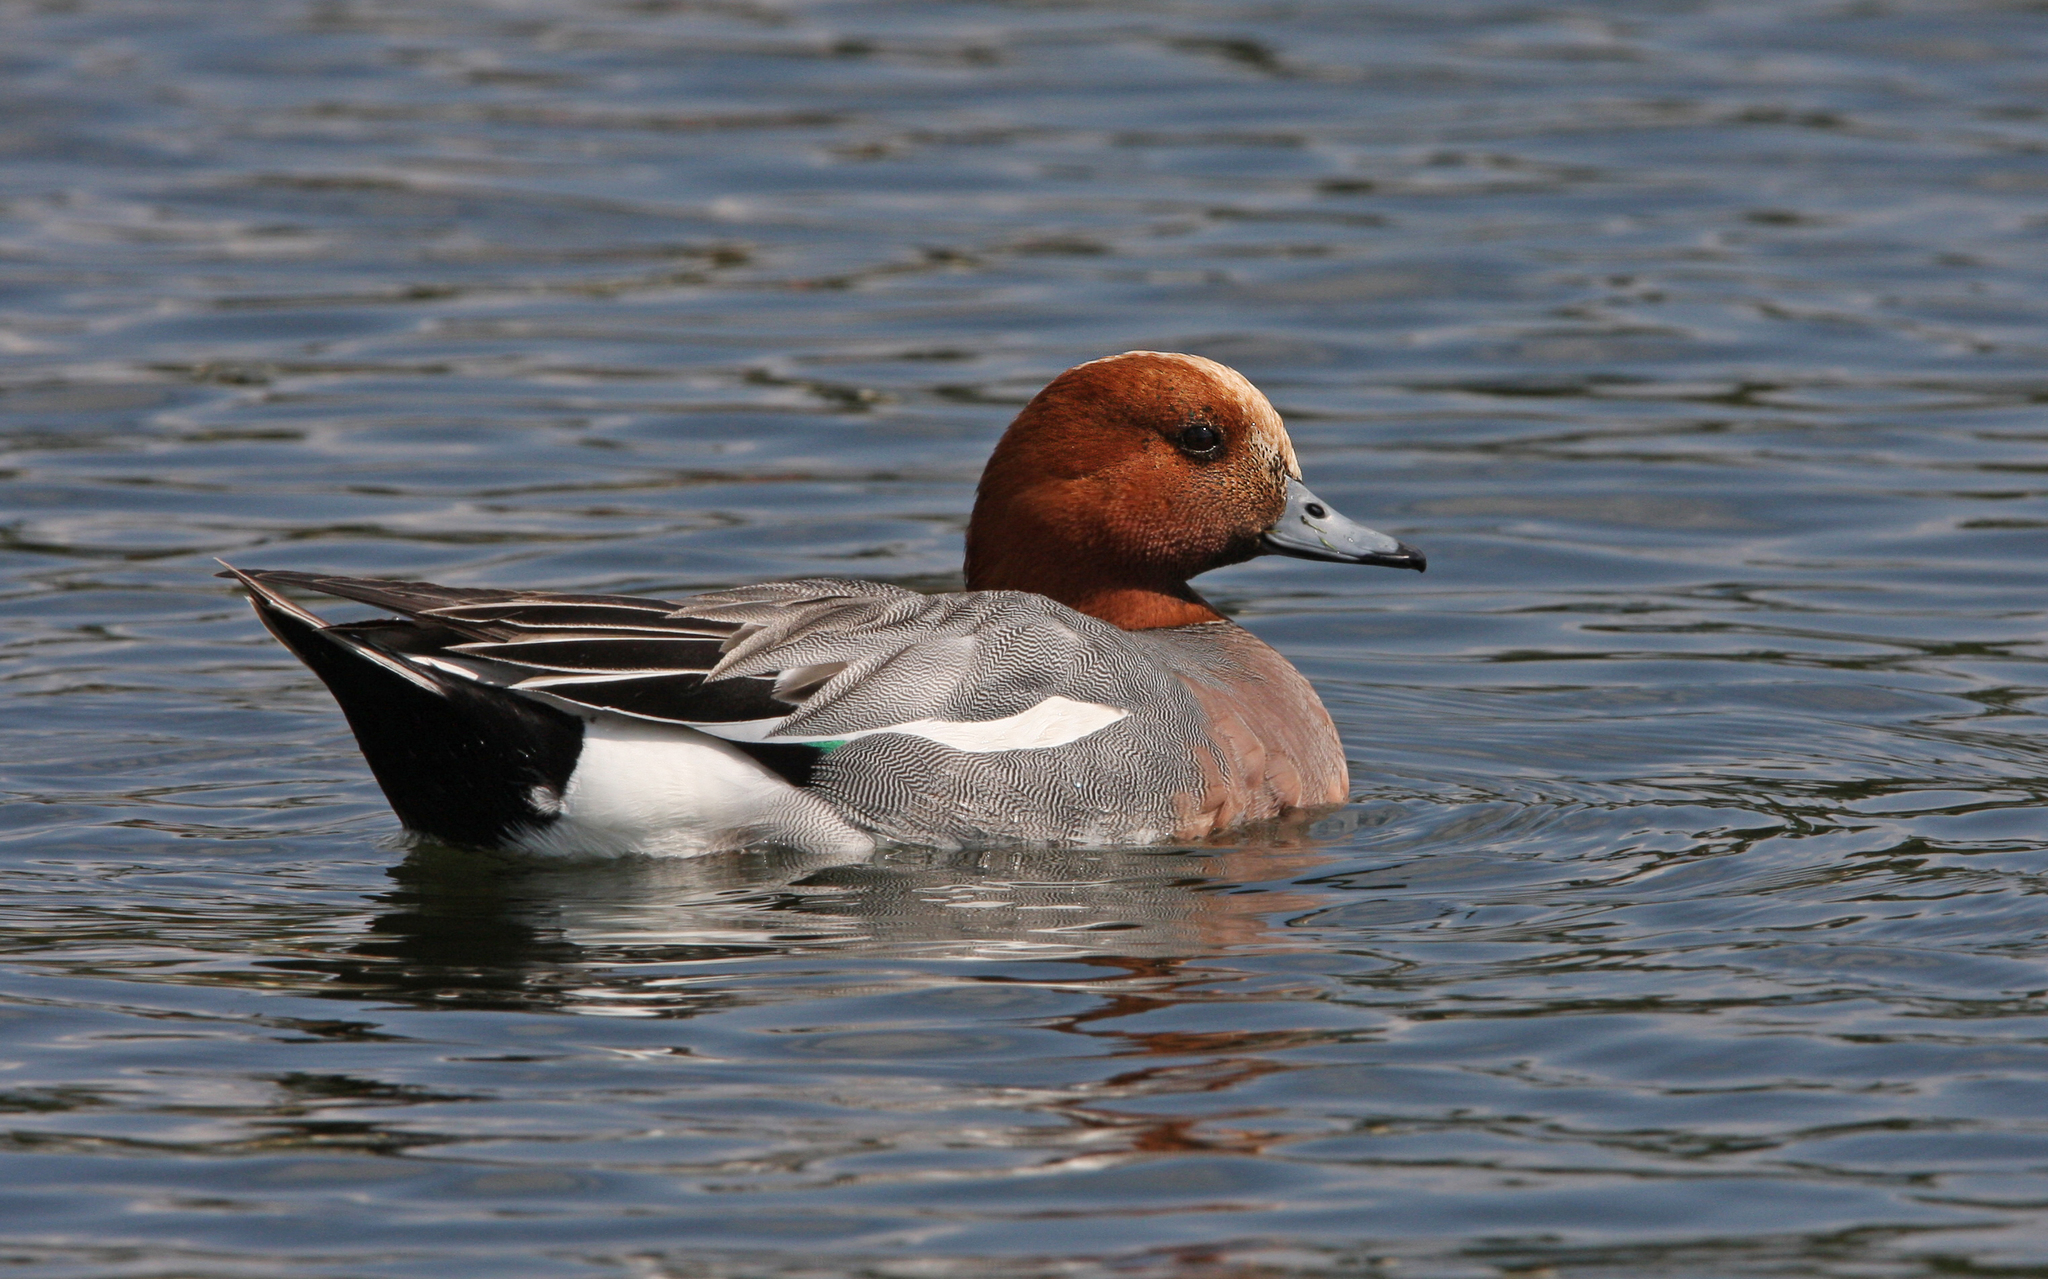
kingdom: Animalia
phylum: Chordata
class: Aves
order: Anseriformes
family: Anatidae
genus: Mareca
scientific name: Mareca penelope
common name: Eurasian wigeon
